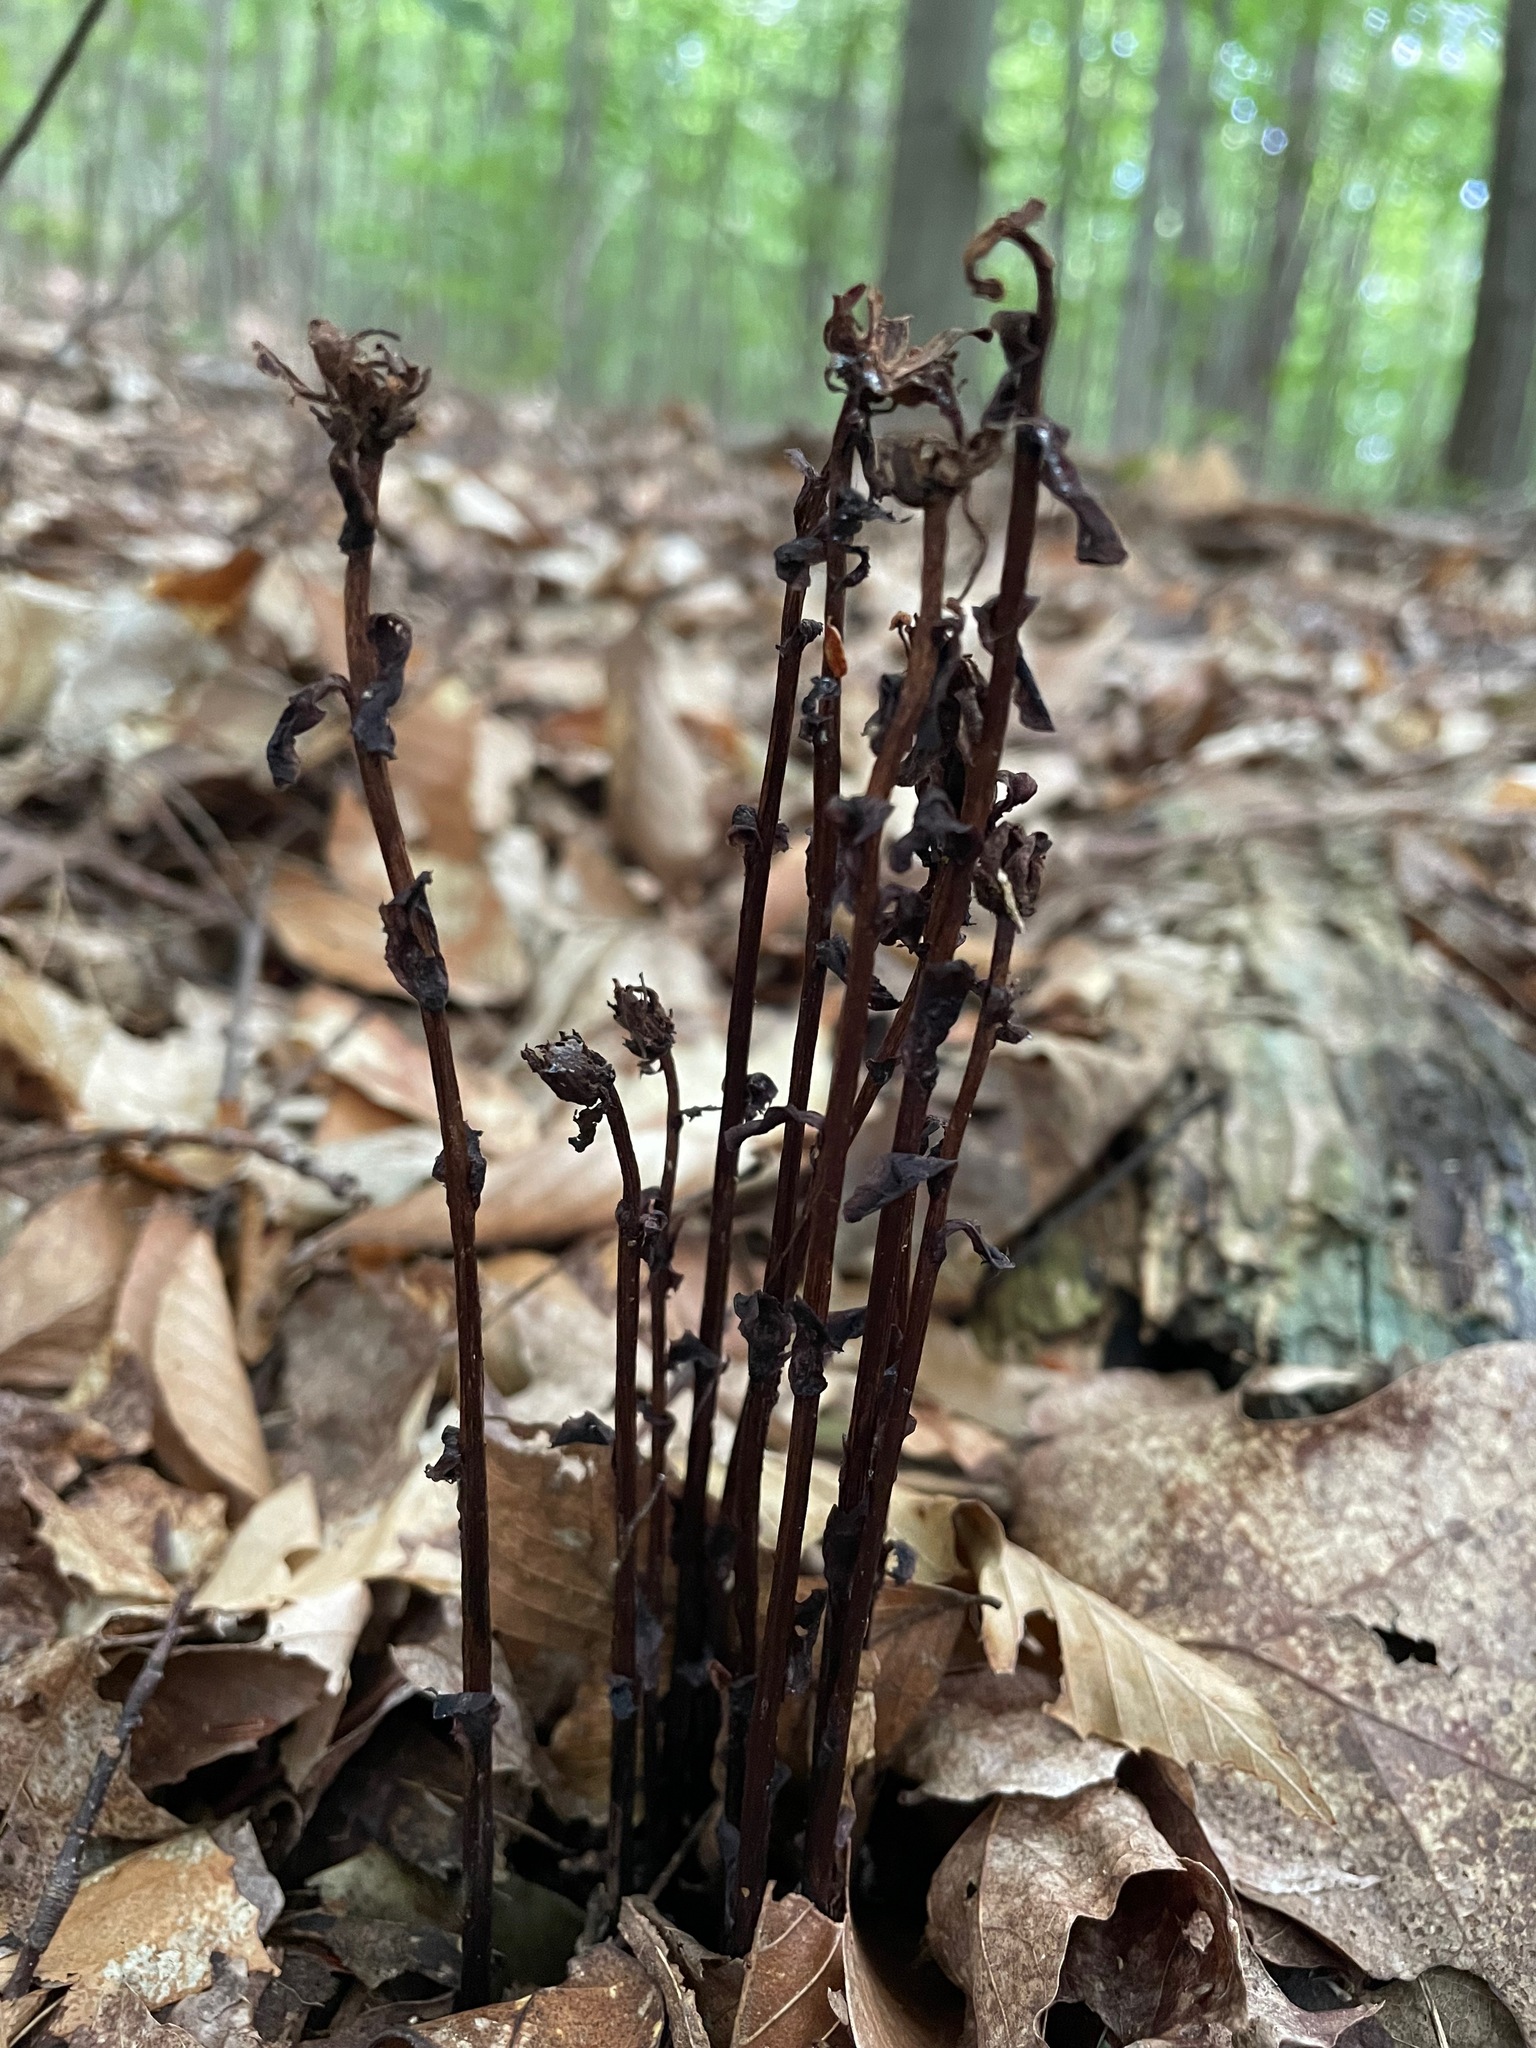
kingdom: Plantae
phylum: Tracheophyta
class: Magnoliopsida
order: Ericales
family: Ericaceae
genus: Monotropa
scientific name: Monotropa uniflora
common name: Convulsion root
